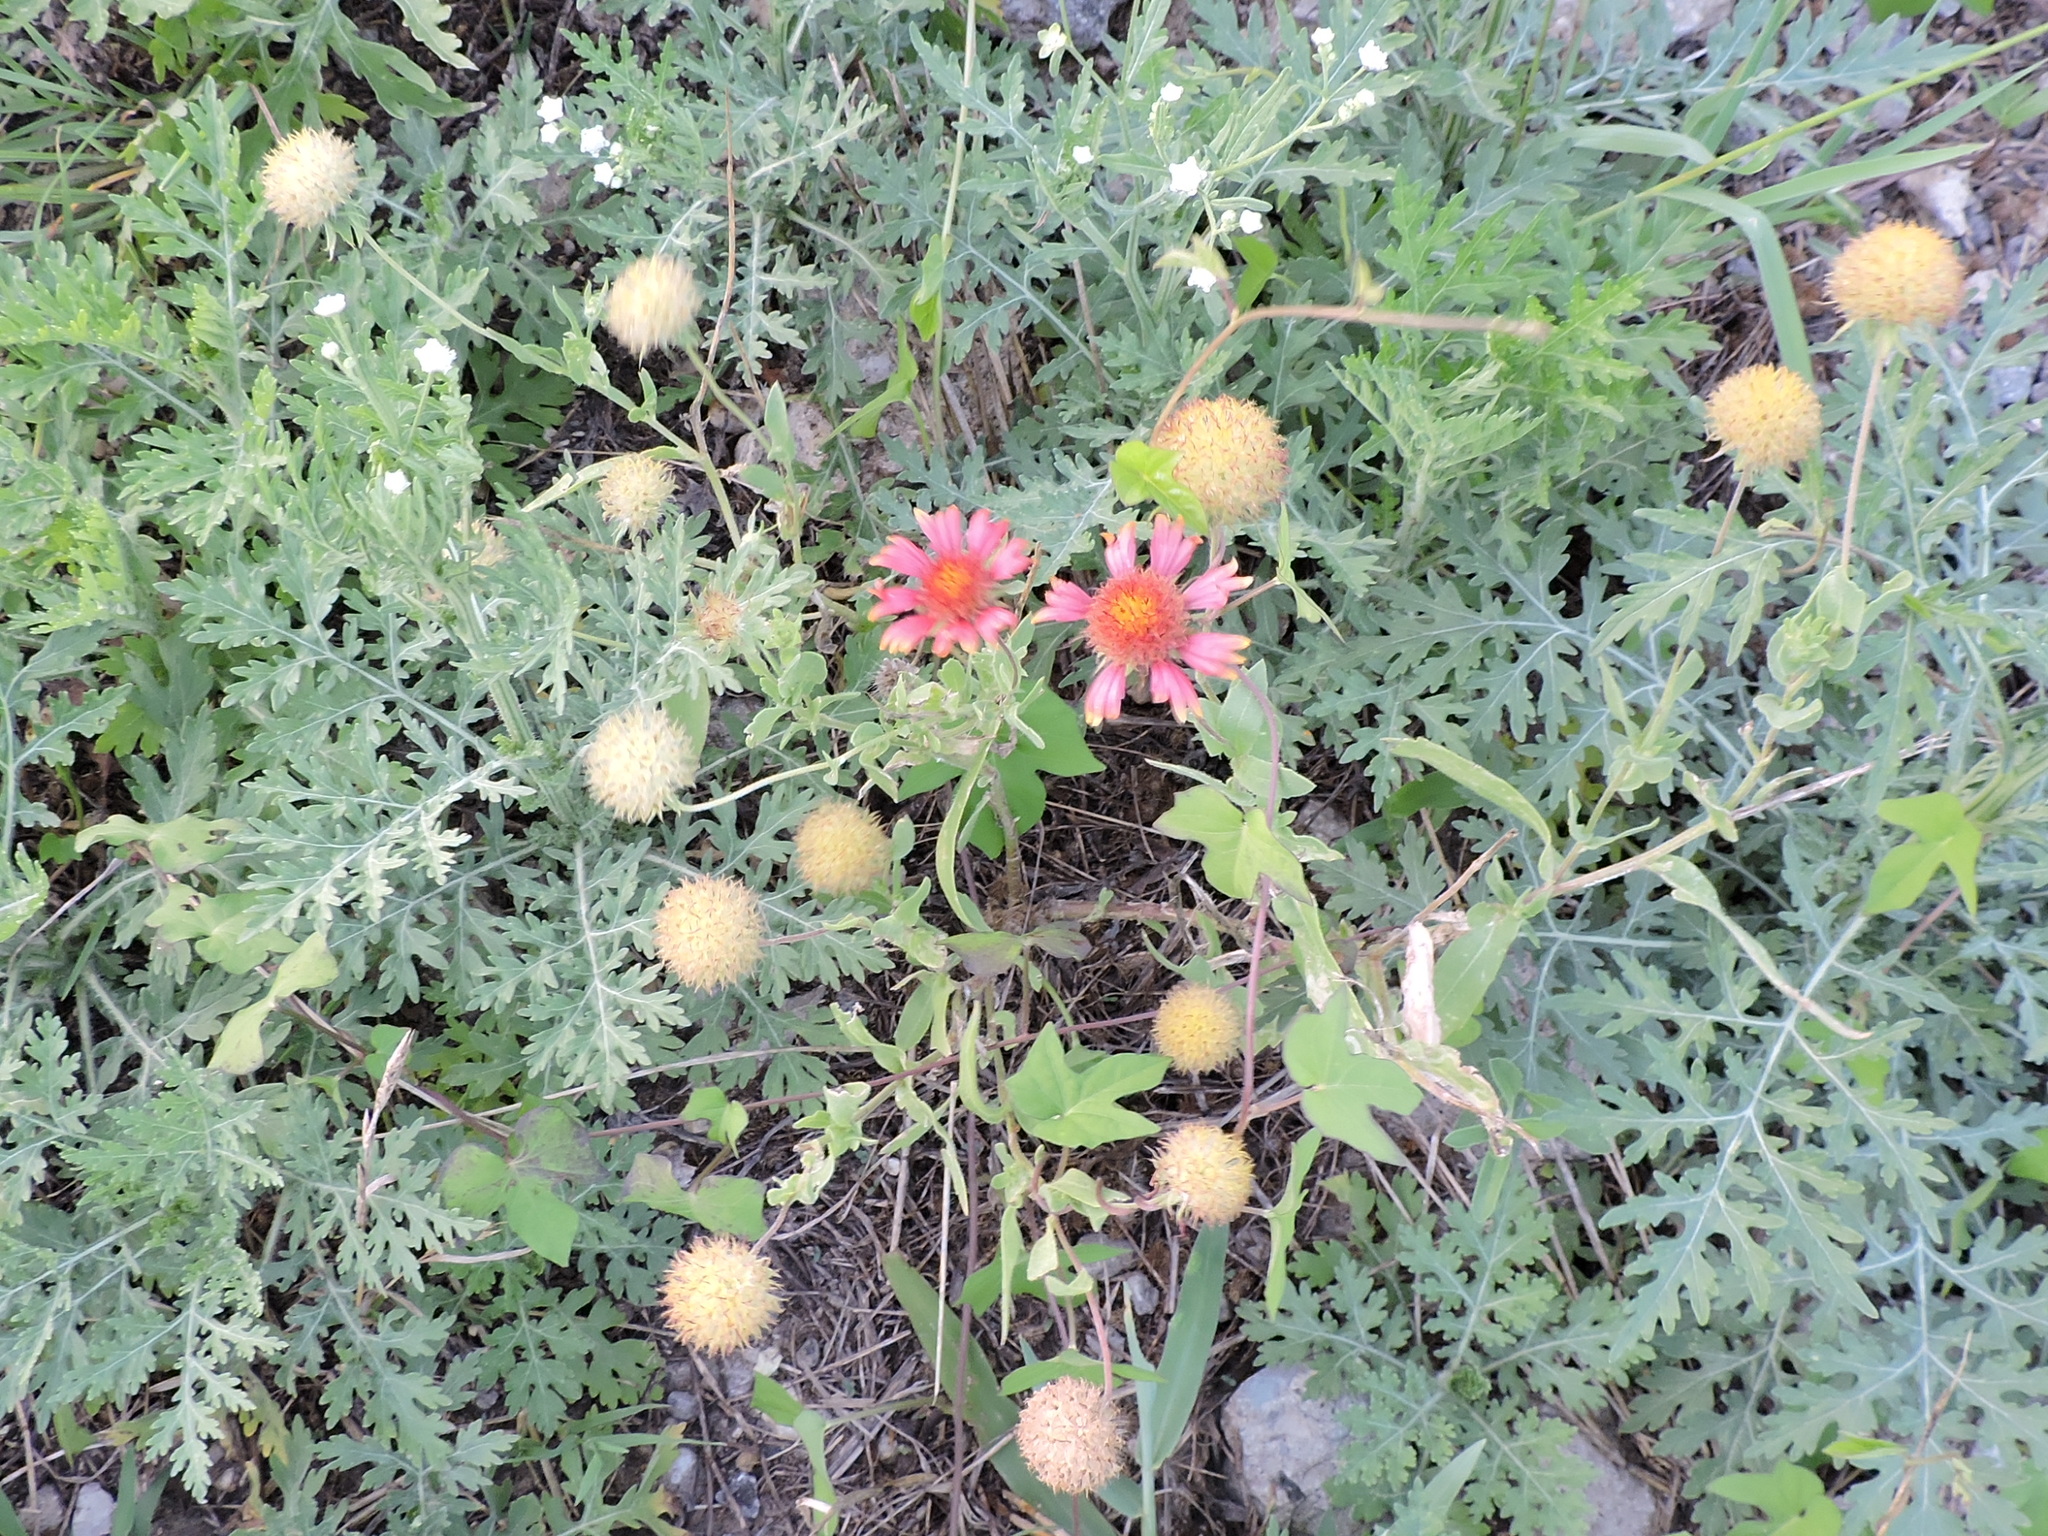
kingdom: Plantae
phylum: Tracheophyta
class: Magnoliopsida
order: Asterales
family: Asteraceae
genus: Gaillardia
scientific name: Gaillardia pulchella
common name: Firewheel
